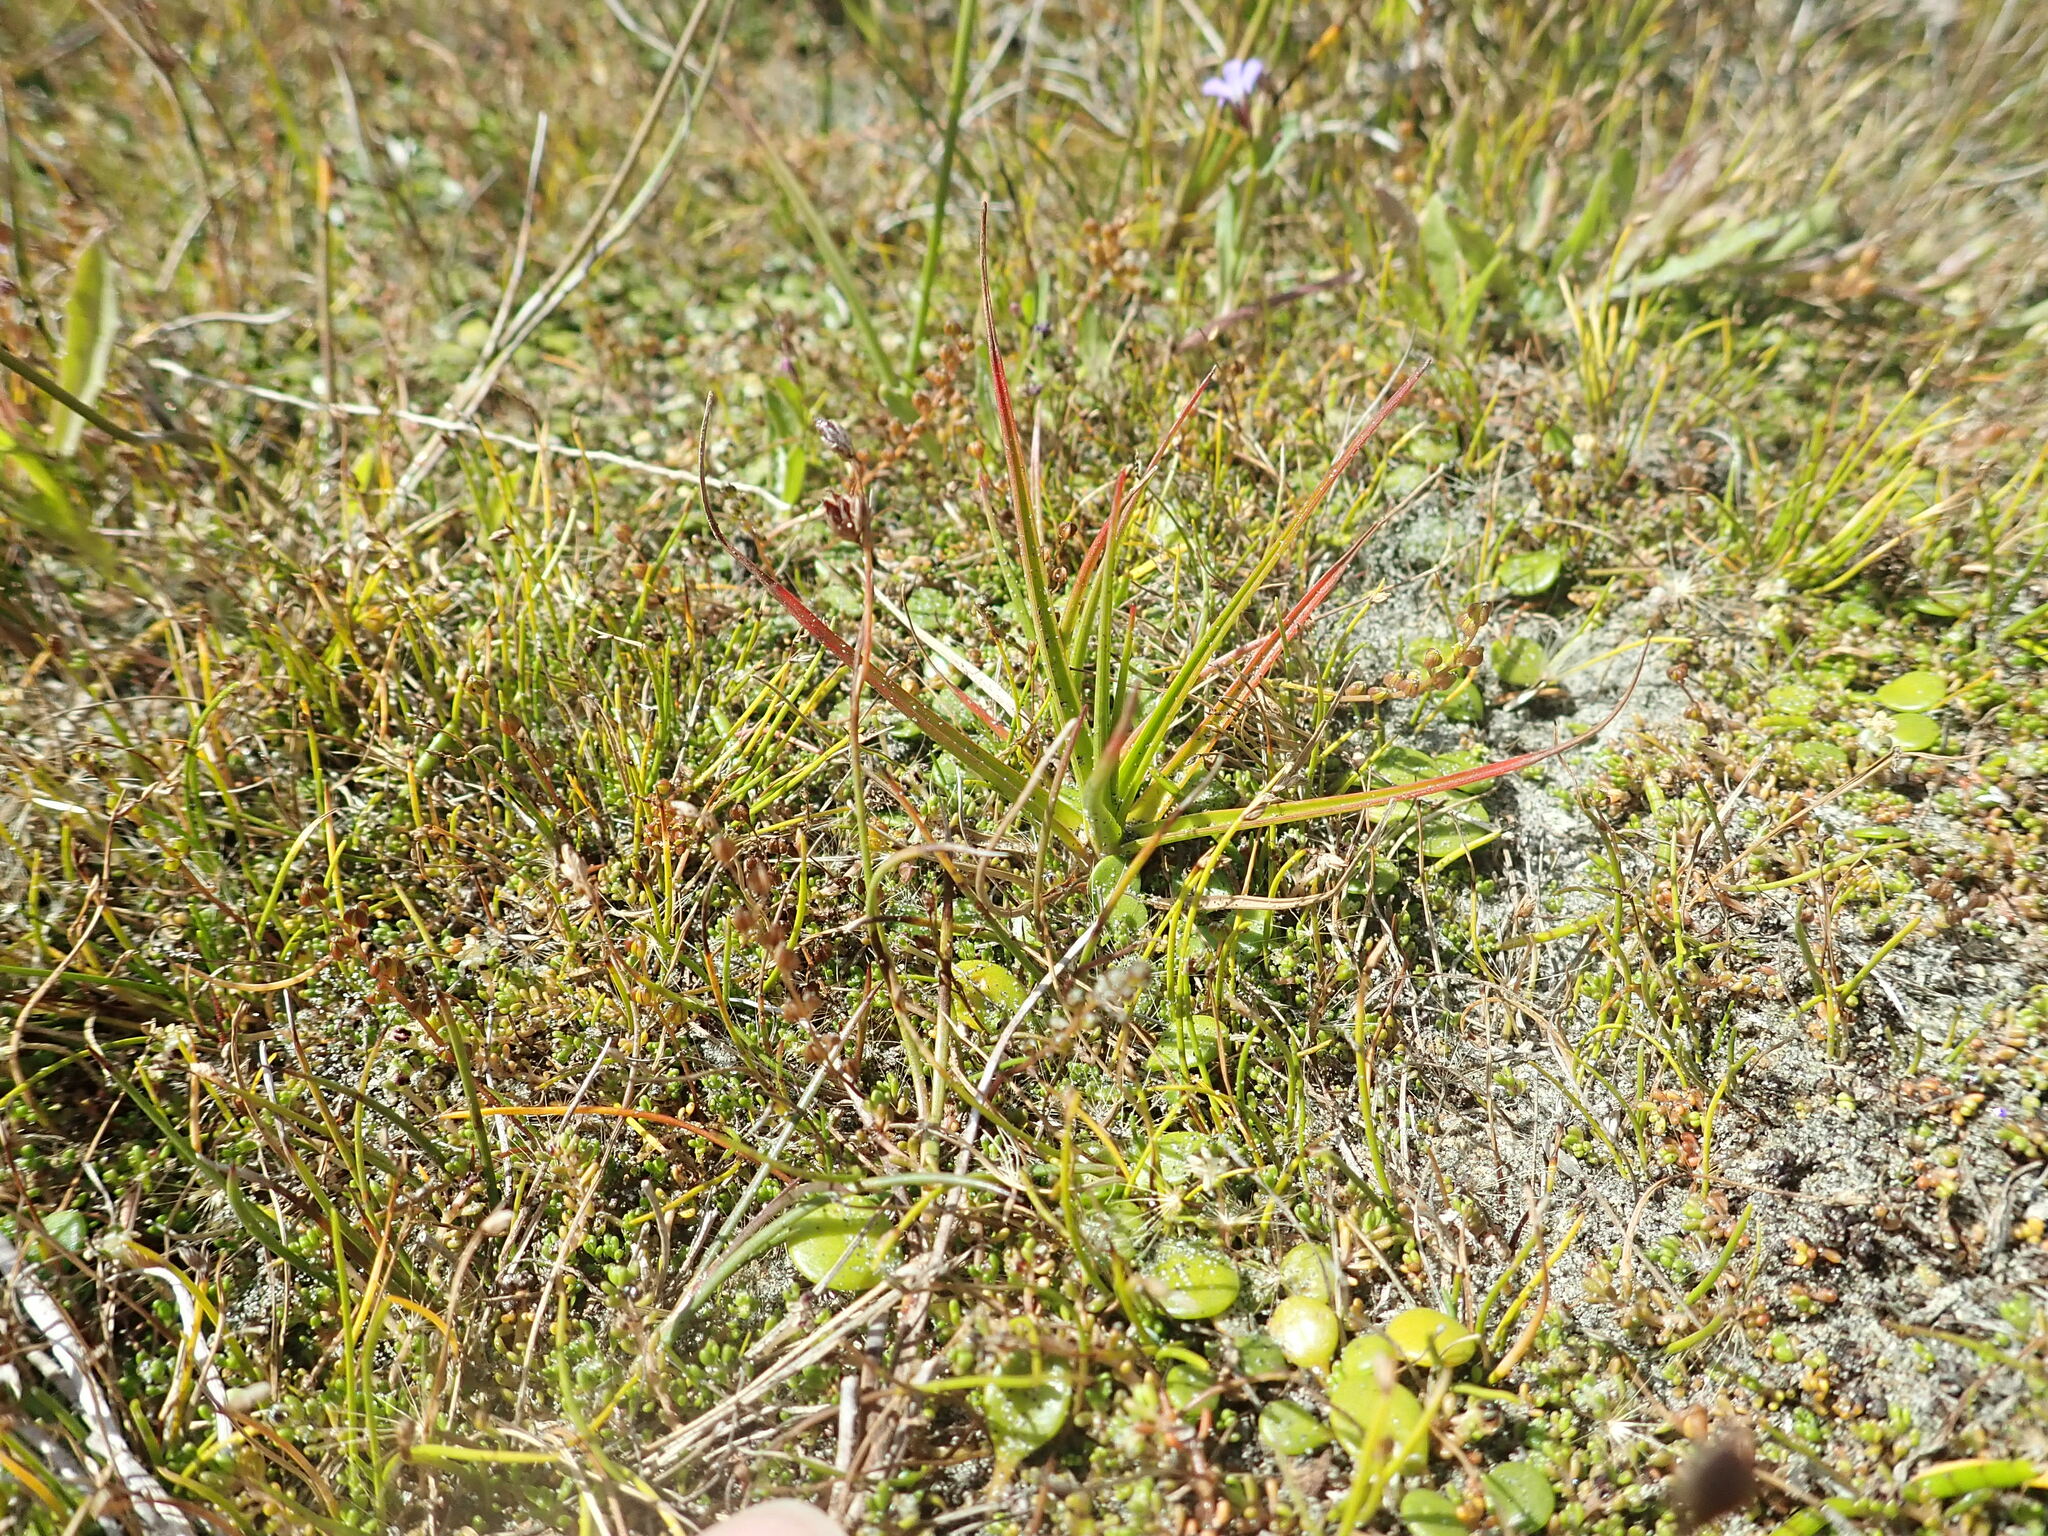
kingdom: Plantae
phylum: Tracheophyta
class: Liliopsida
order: Poales
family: Juncaceae
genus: Juncus
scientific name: Juncus caespiticius
